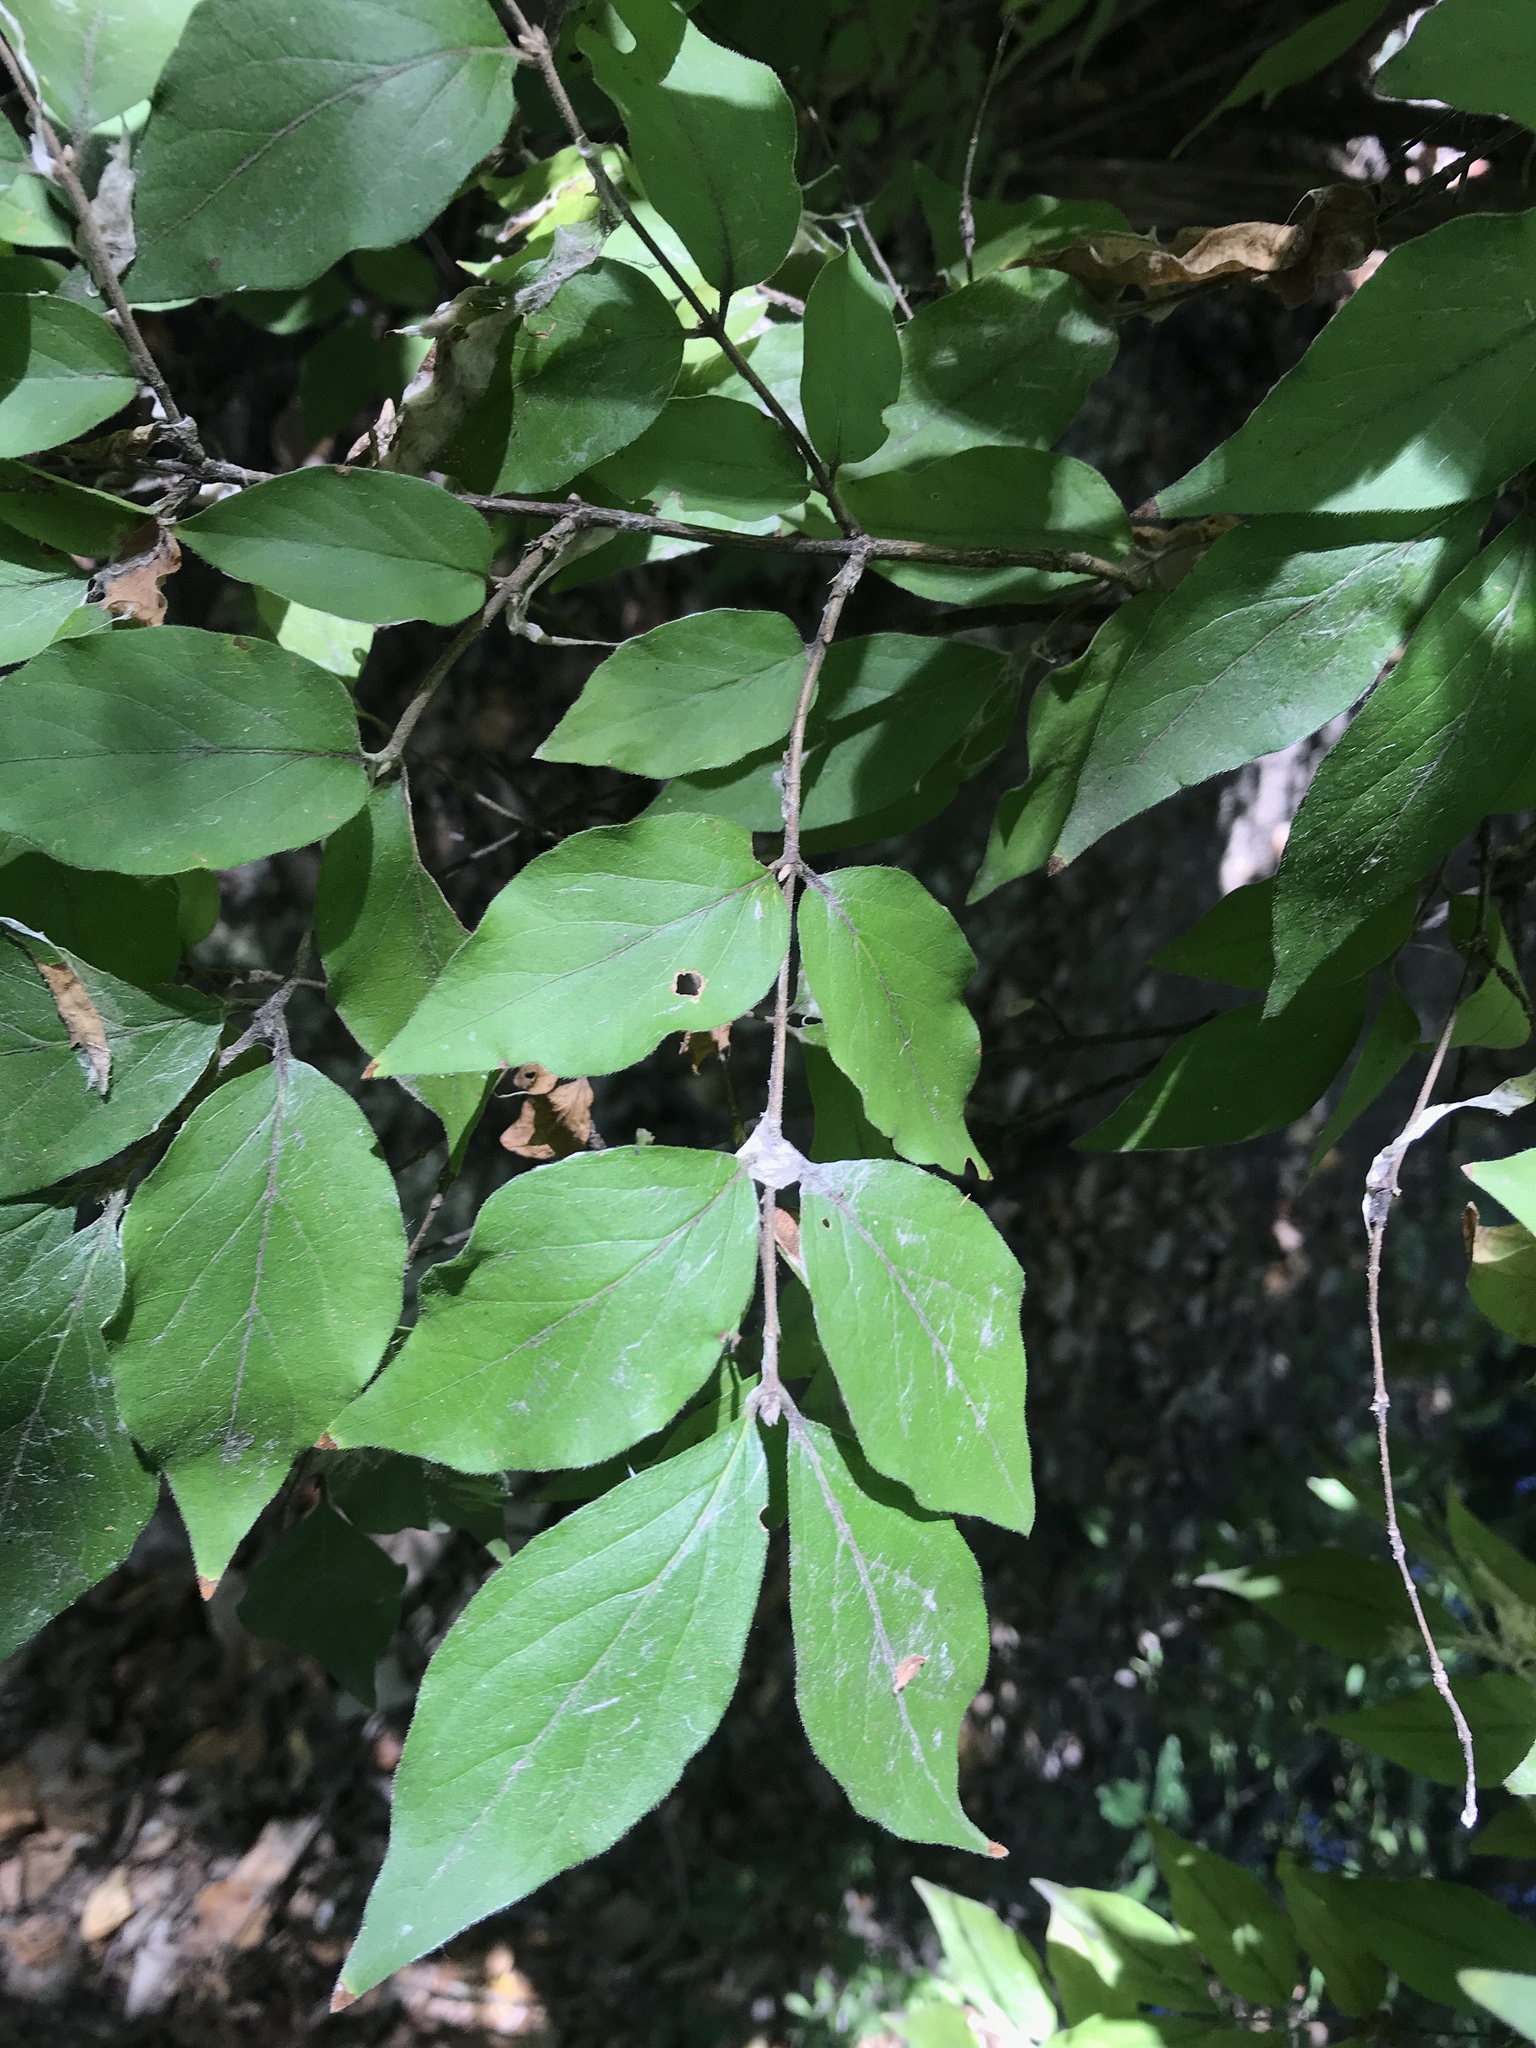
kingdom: Plantae
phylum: Tracheophyta
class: Magnoliopsida
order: Dipsacales
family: Caprifoliaceae
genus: Lonicera
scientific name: Lonicera maackii
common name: Amur honeysuckle
